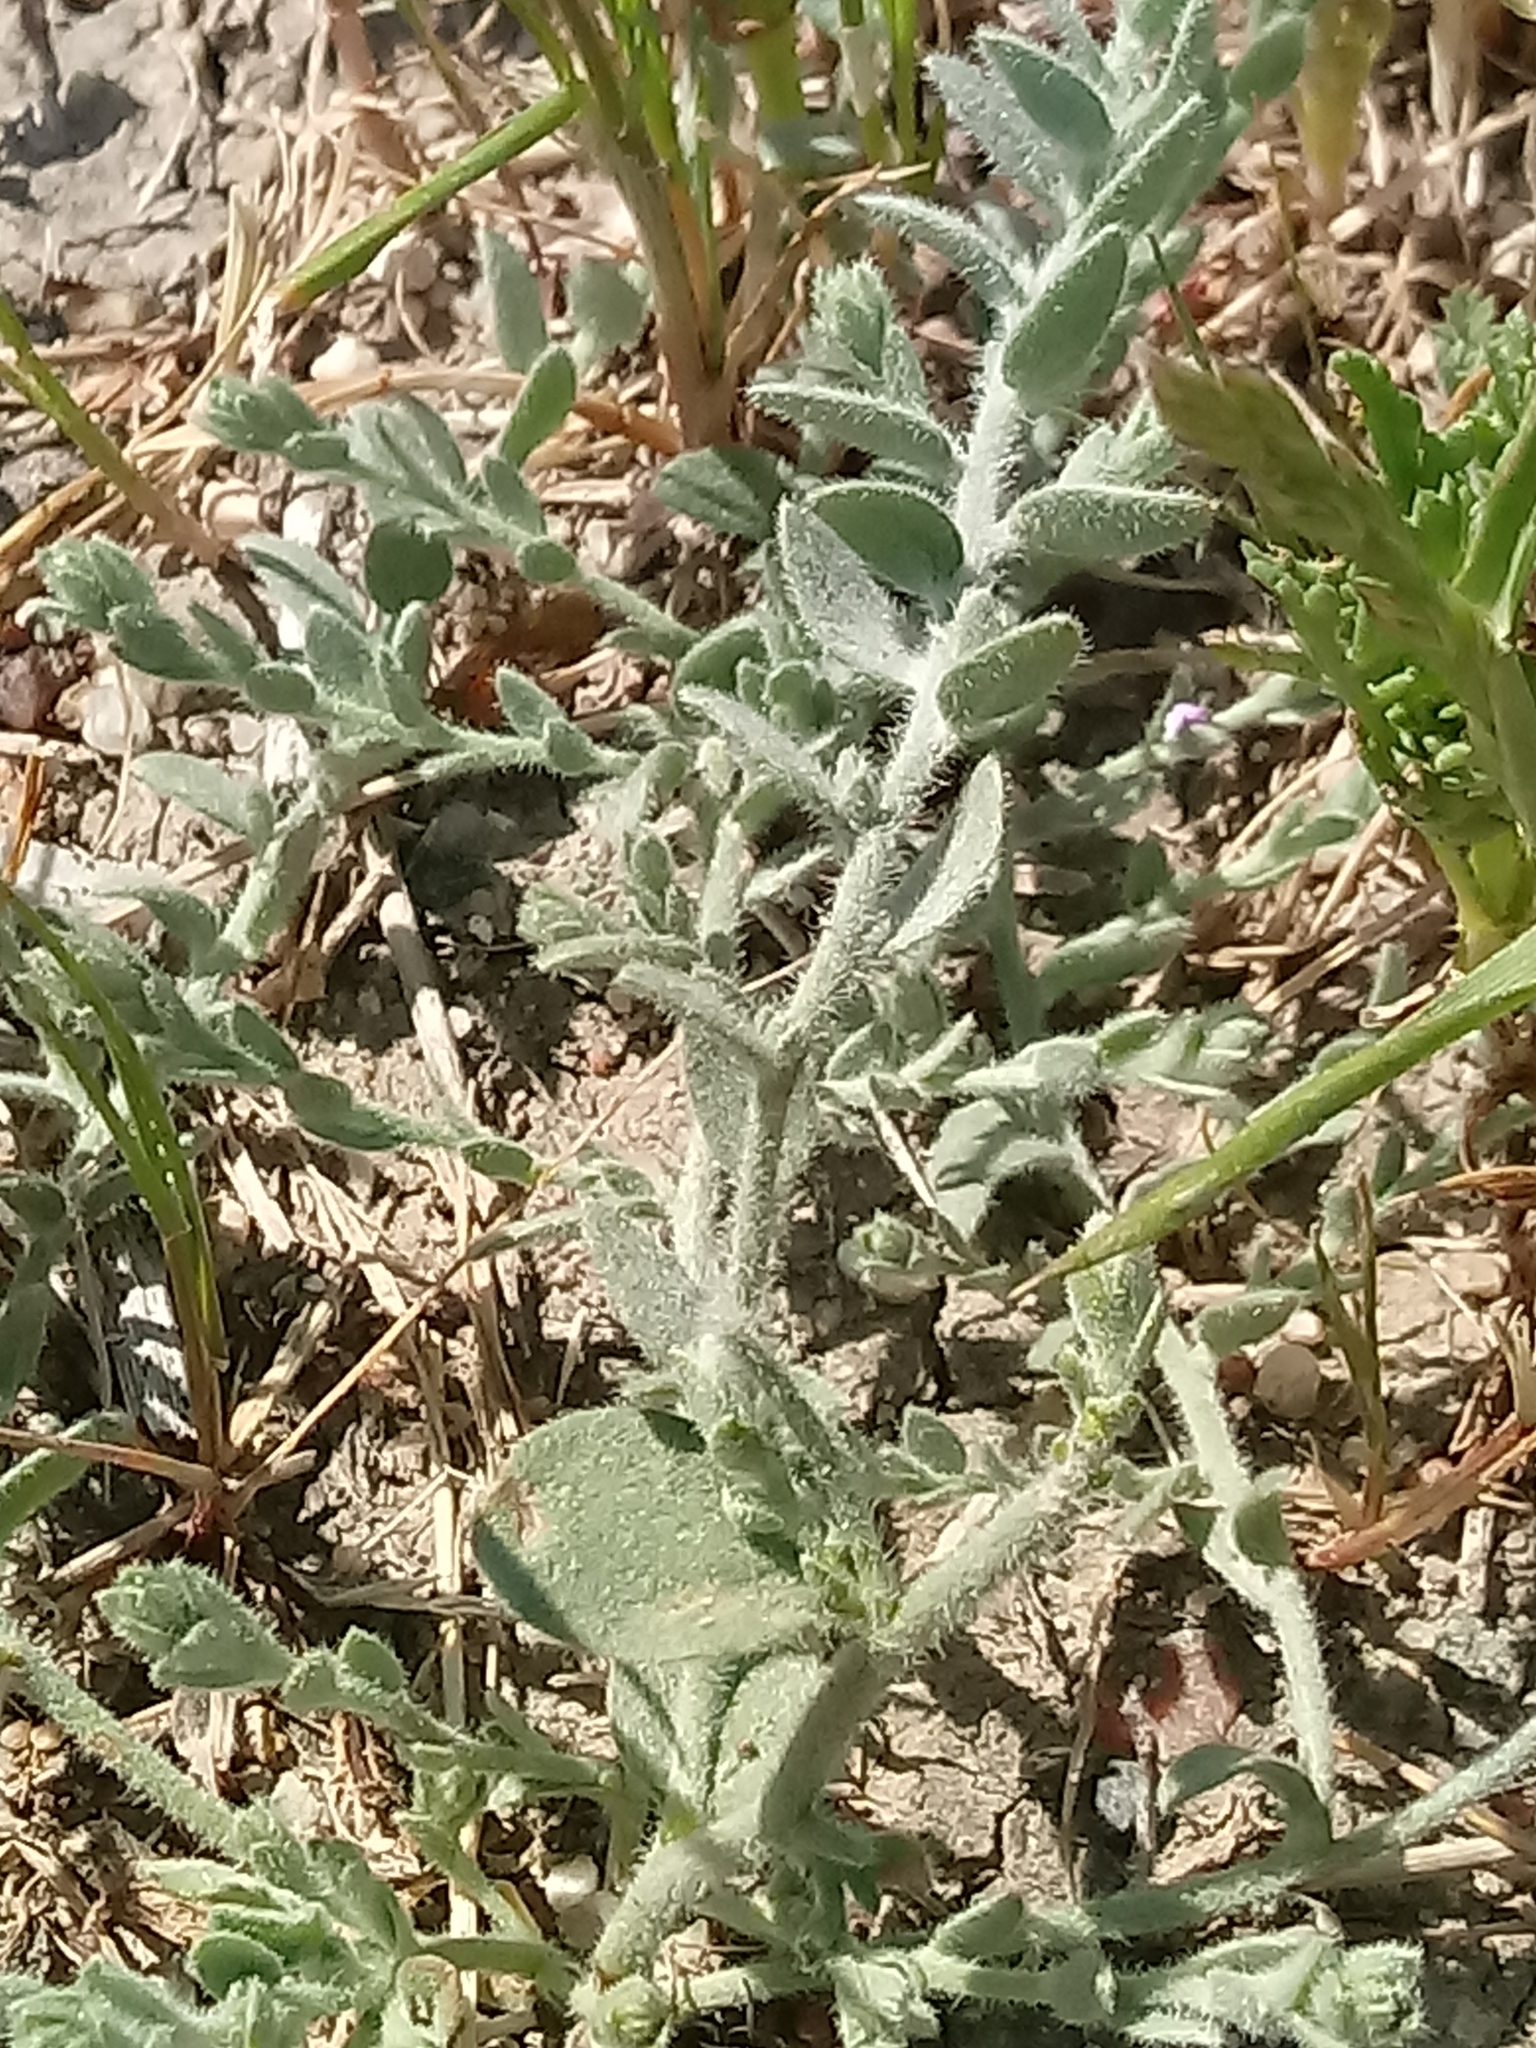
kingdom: Plantae
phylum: Tracheophyta
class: Magnoliopsida
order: Solanales
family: Convolvulaceae
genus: Cressa
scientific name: Cressa truxillensis
